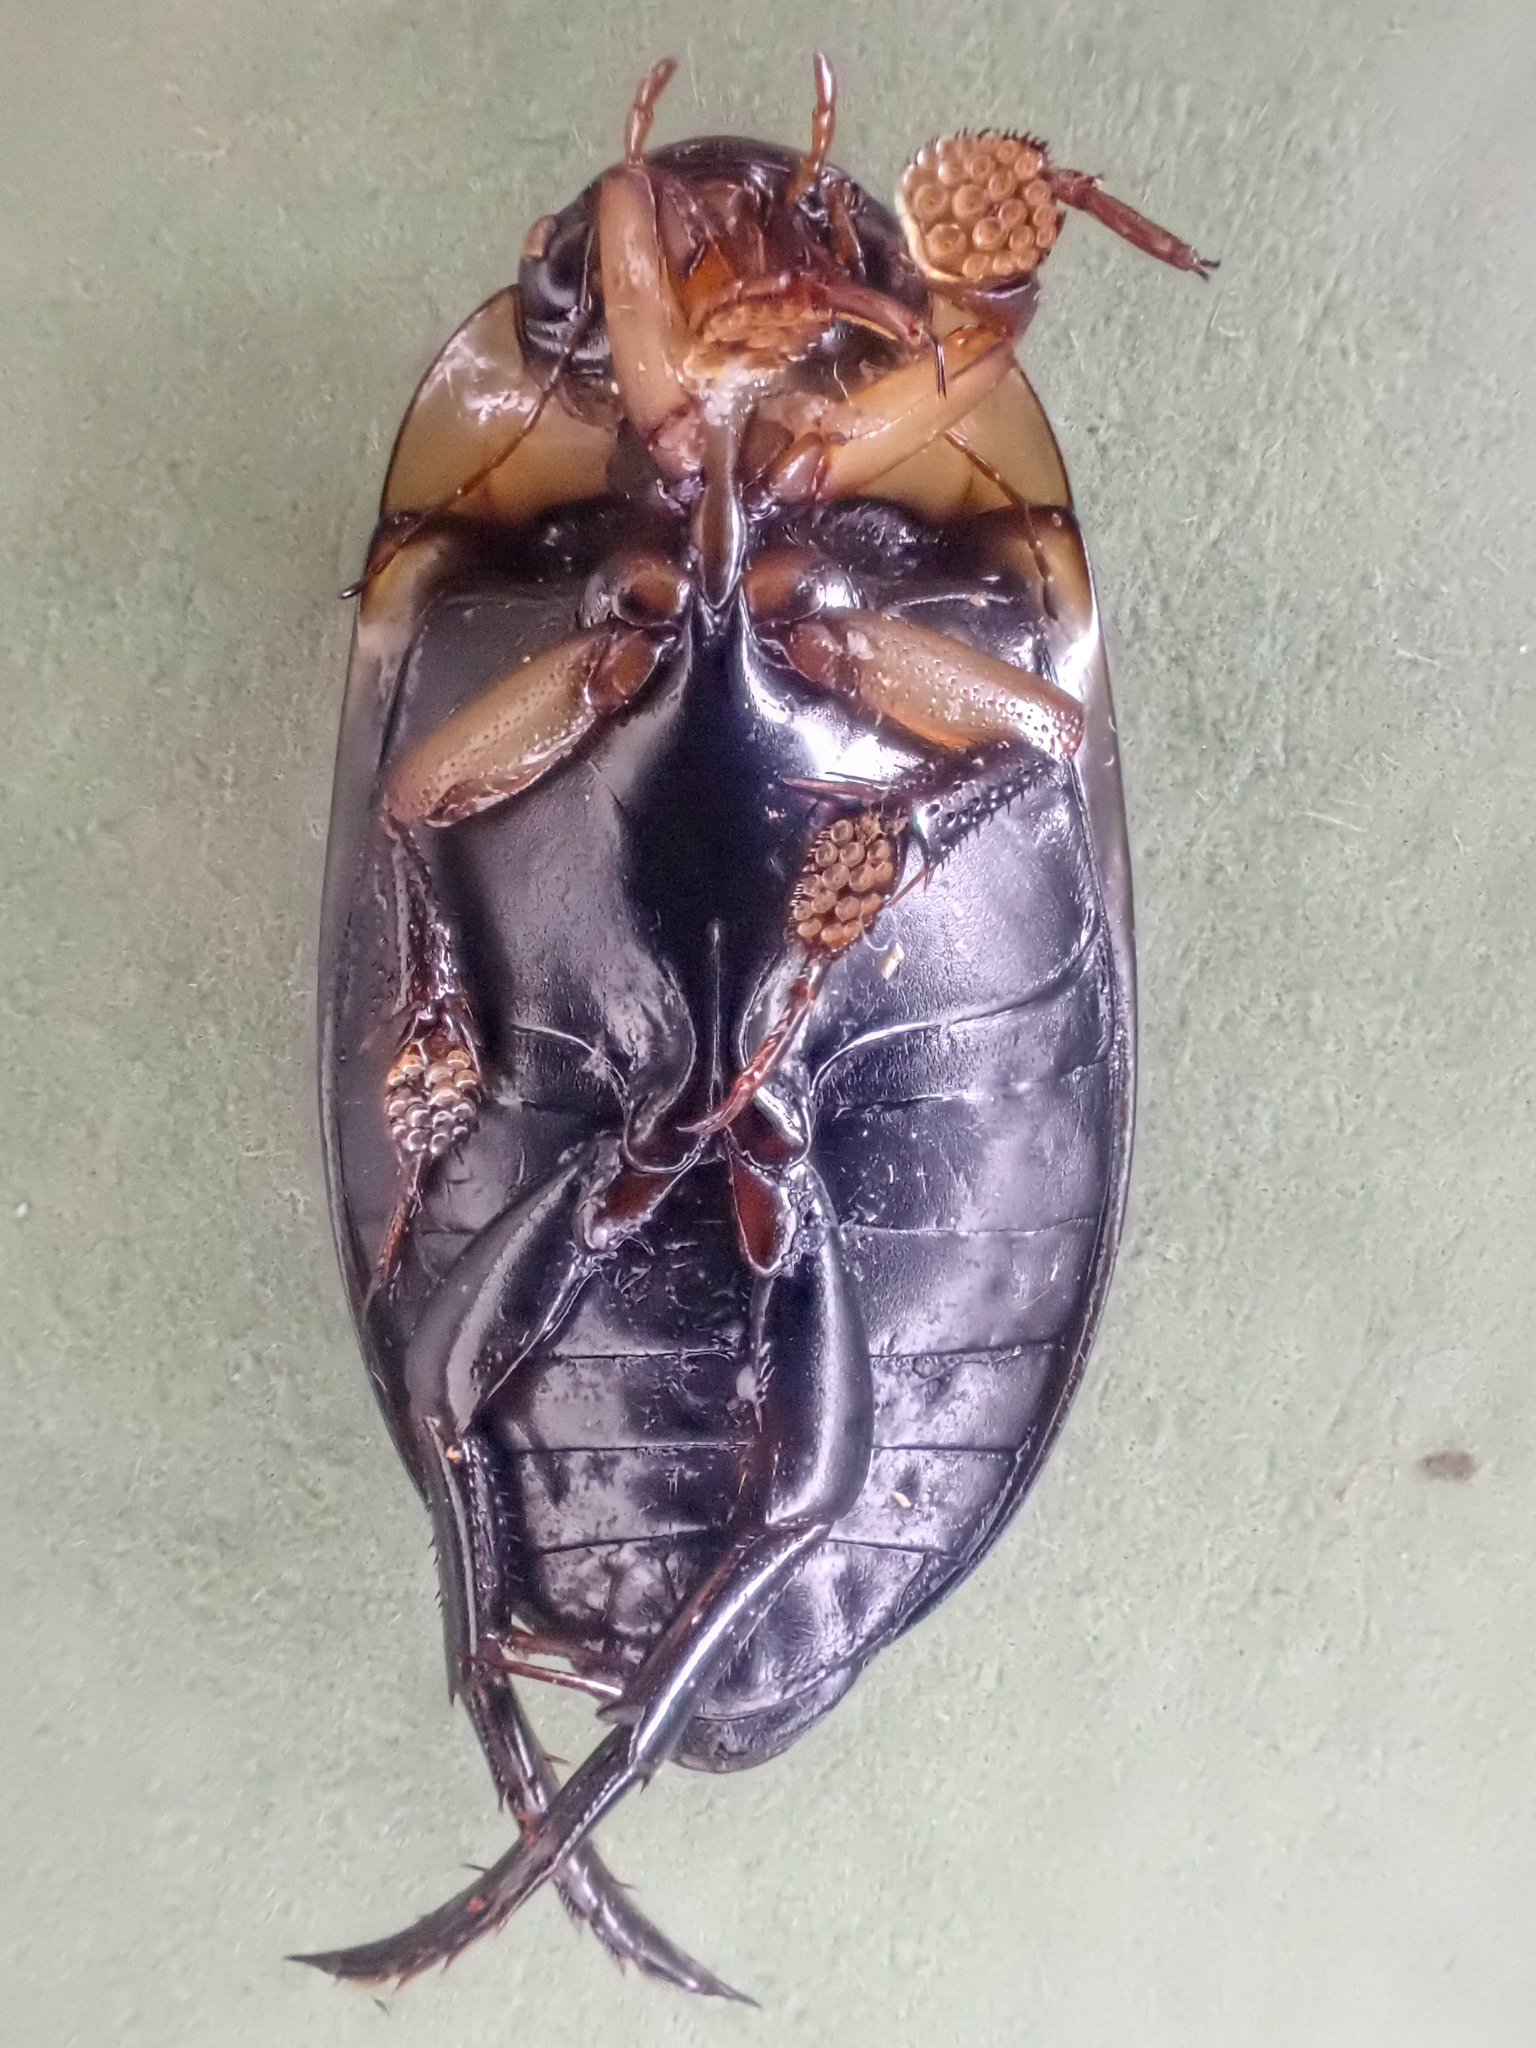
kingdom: Animalia
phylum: Arthropoda
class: Insecta
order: Coleoptera
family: Dytiscidae
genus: Hydaticus
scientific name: Hydaticus aruspex
